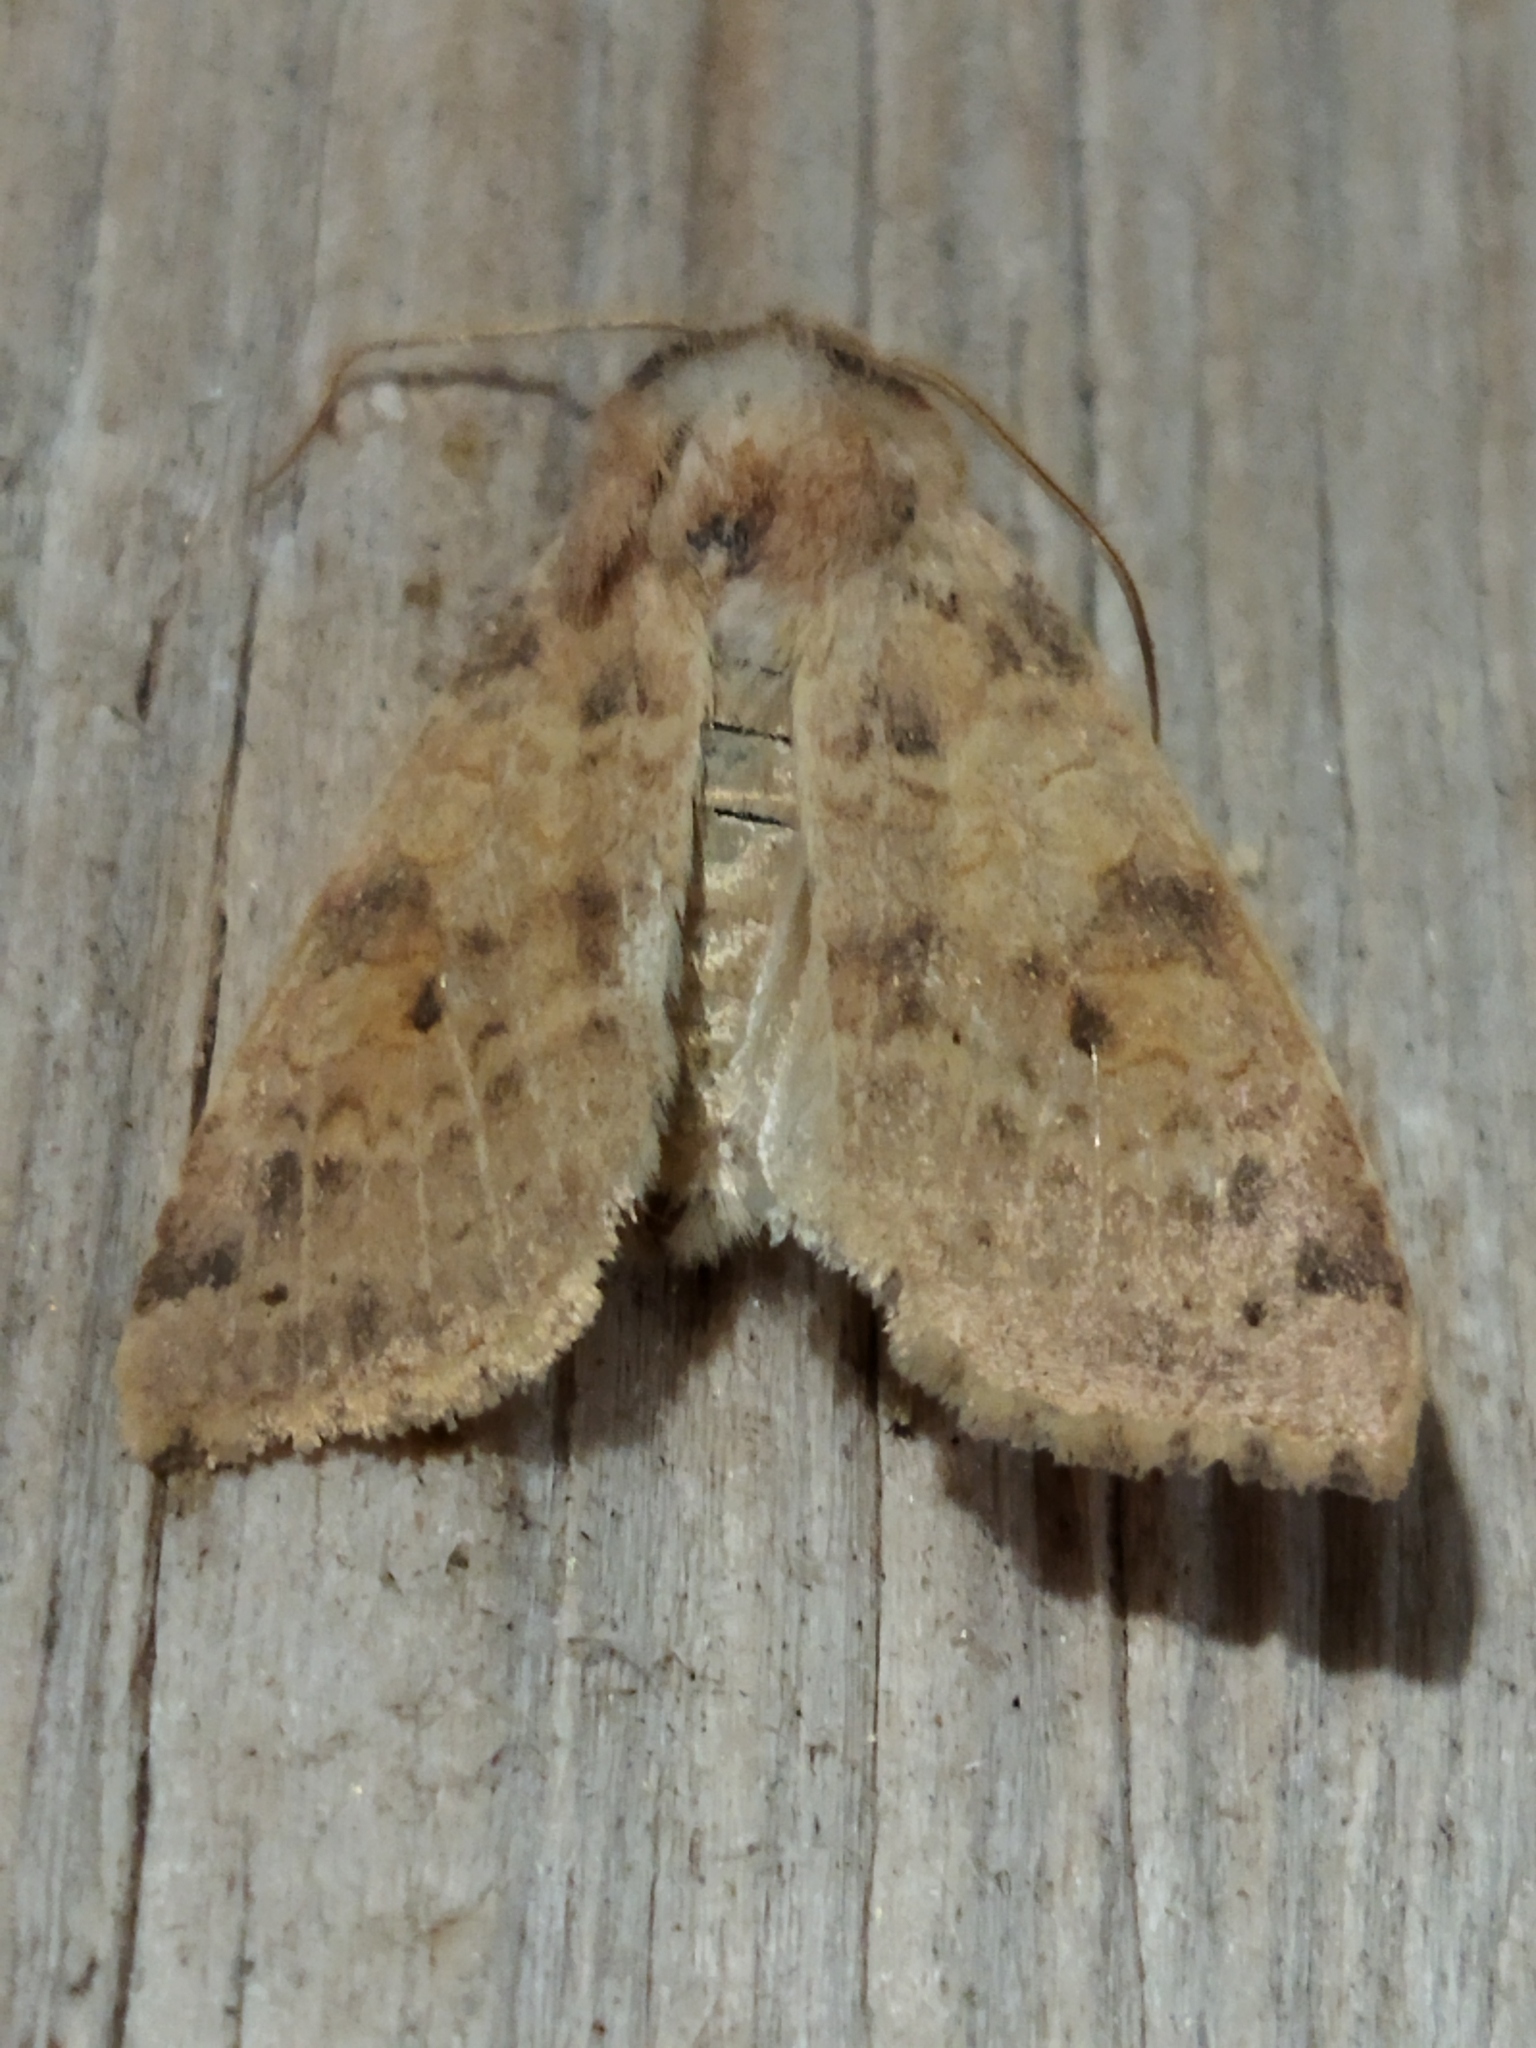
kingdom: Animalia
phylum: Arthropoda
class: Insecta
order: Lepidoptera
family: Noctuidae
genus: Xanthia
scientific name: Xanthia ocellaris
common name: Pale-lemon sallow
